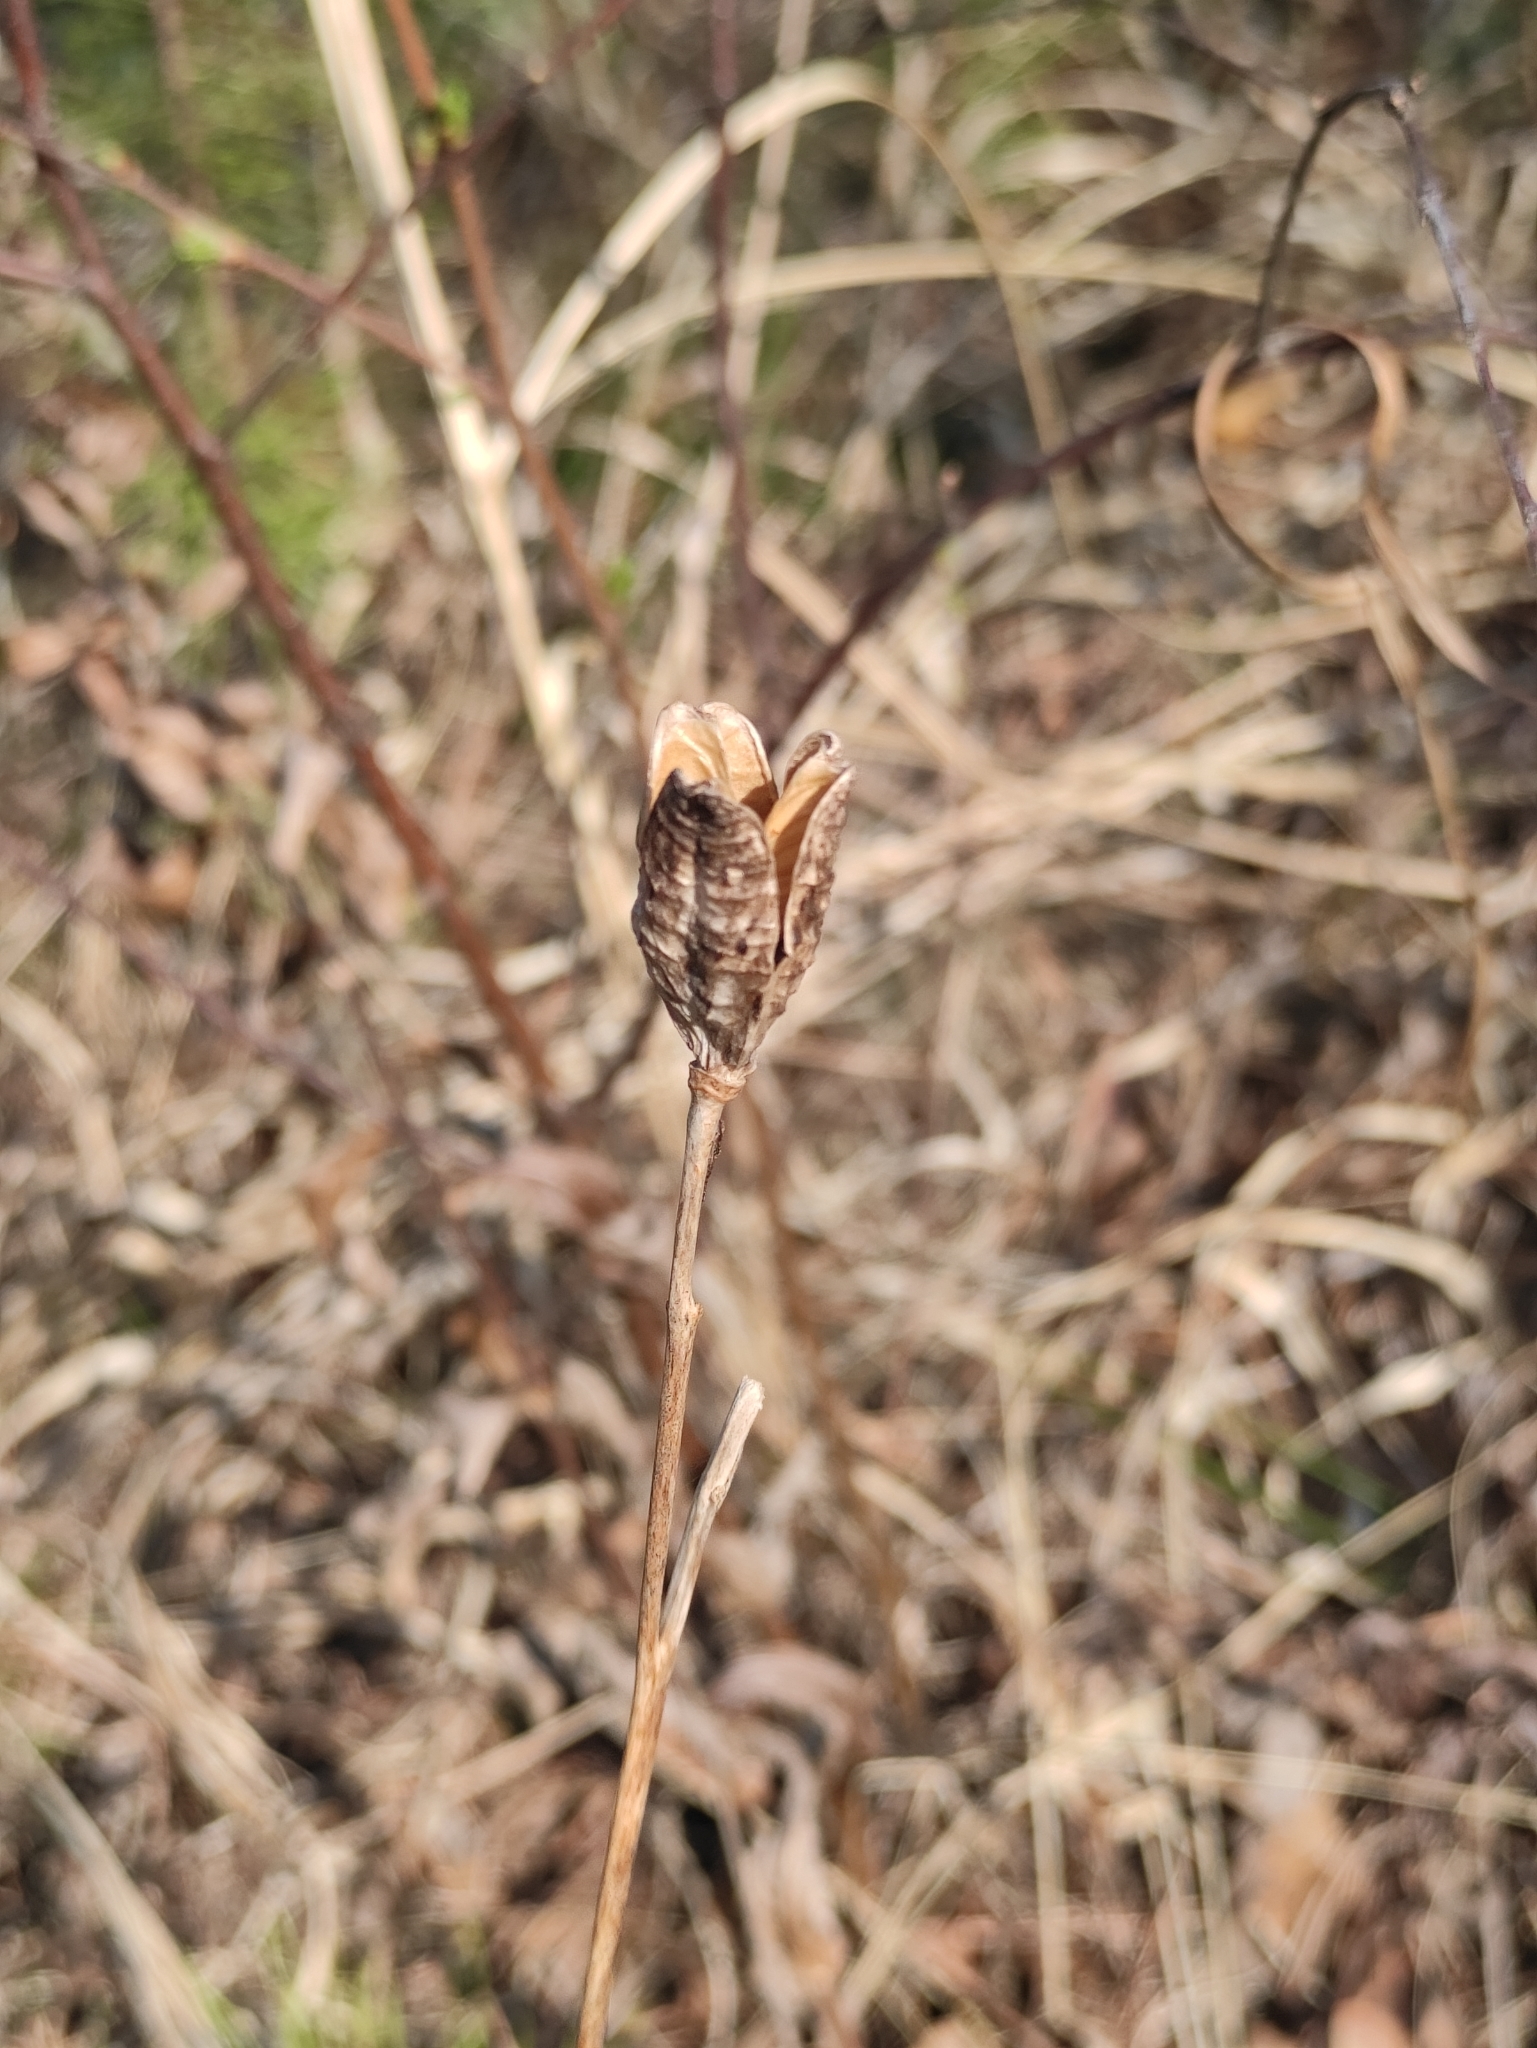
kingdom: Plantae
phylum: Tracheophyta
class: Liliopsida
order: Asparagales
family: Asphodelaceae
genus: Hemerocallis
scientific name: Hemerocallis minor
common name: Small daylily
